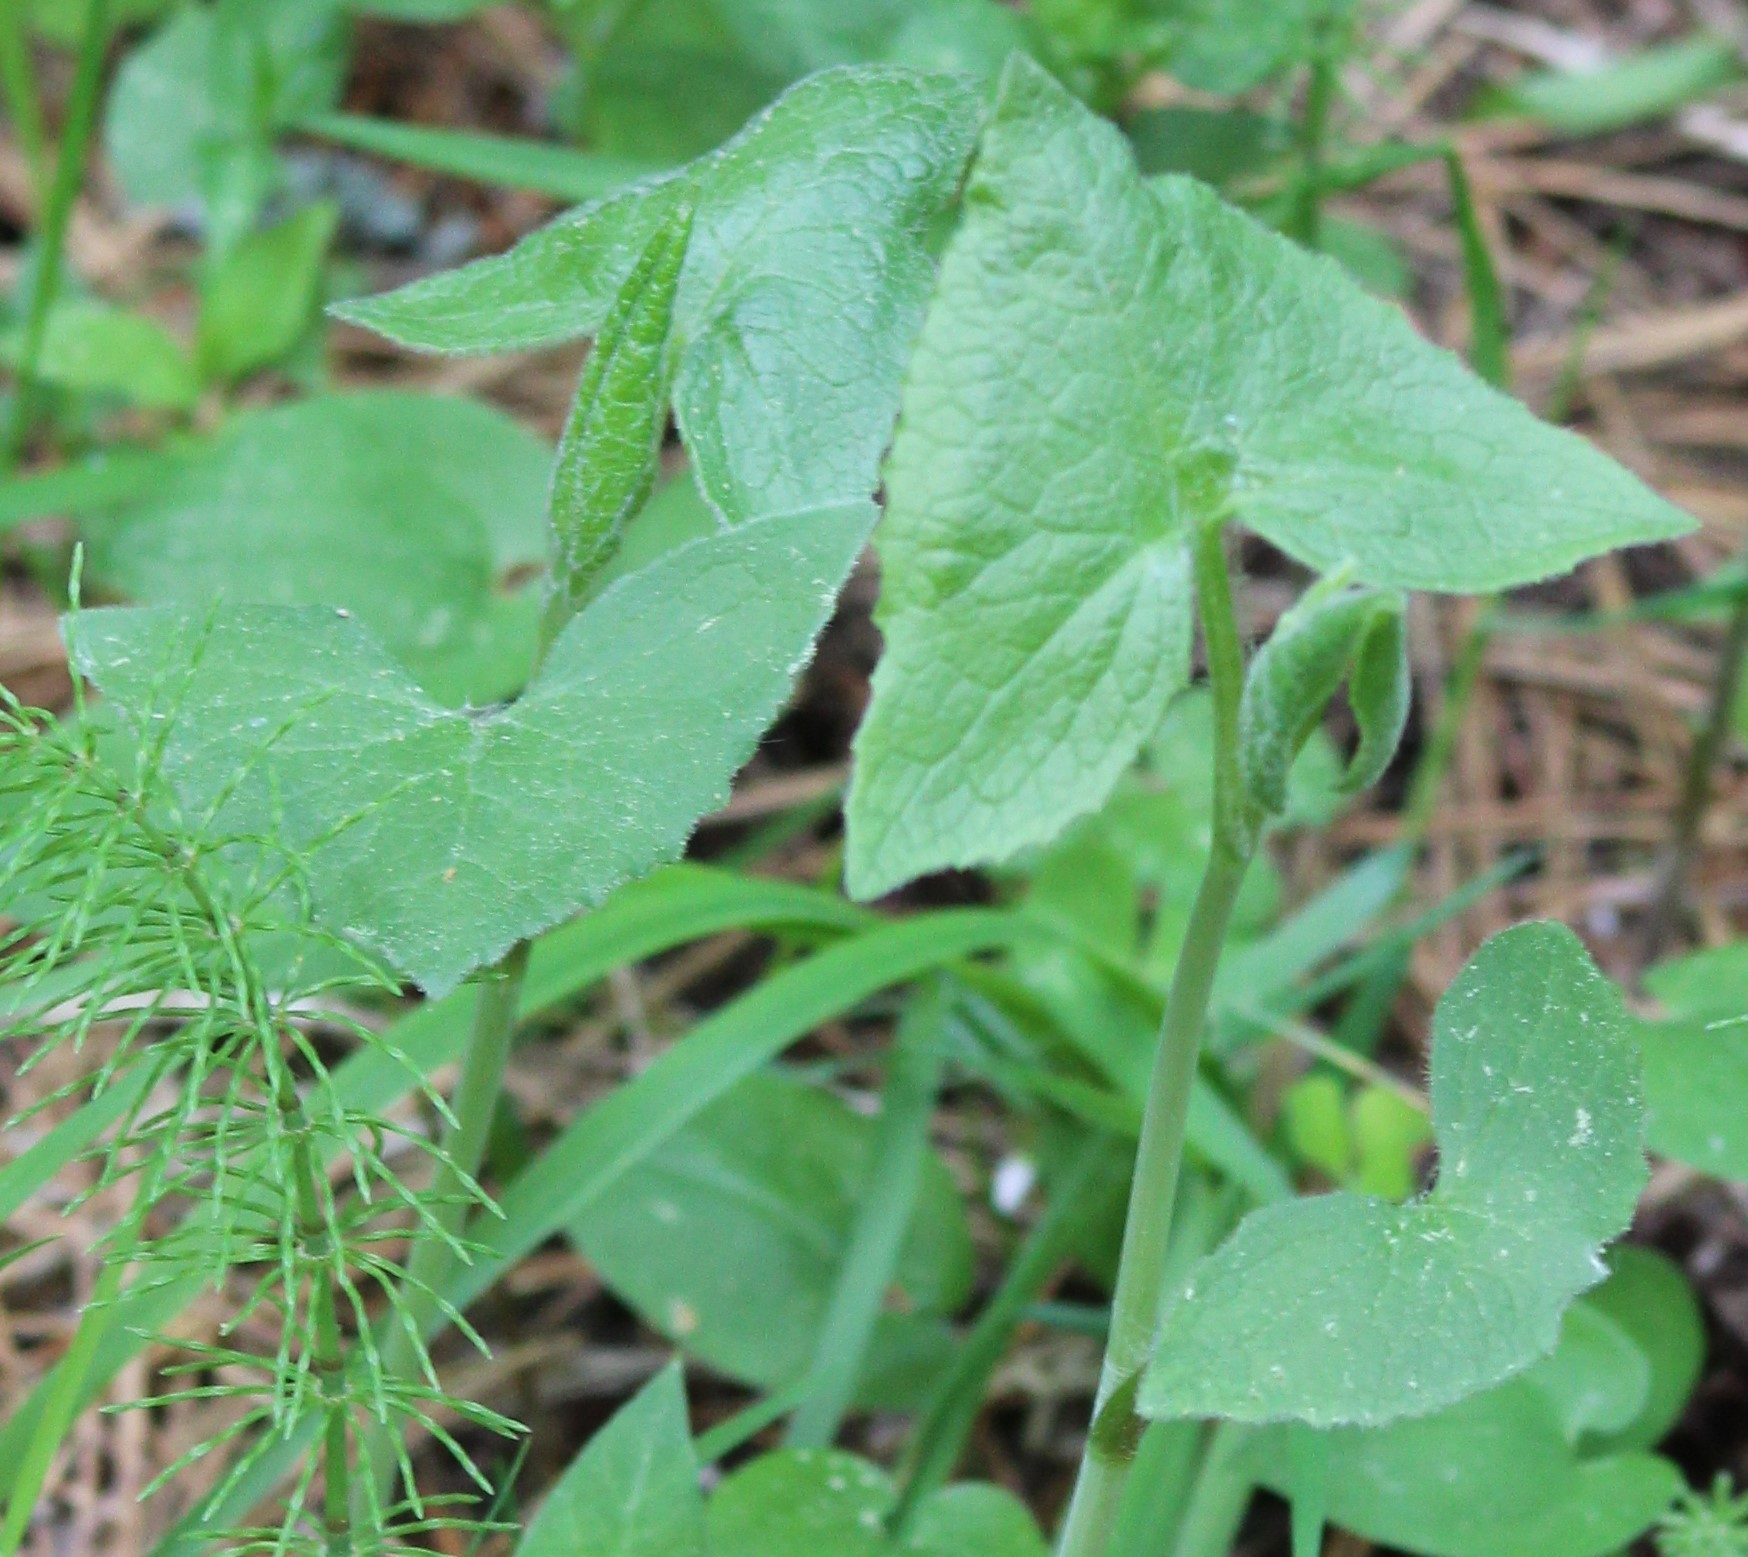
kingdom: Plantae
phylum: Tracheophyta
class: Magnoliopsida
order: Asterales
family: Asteraceae
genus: Parasenecio
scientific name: Parasenecio hastatus
